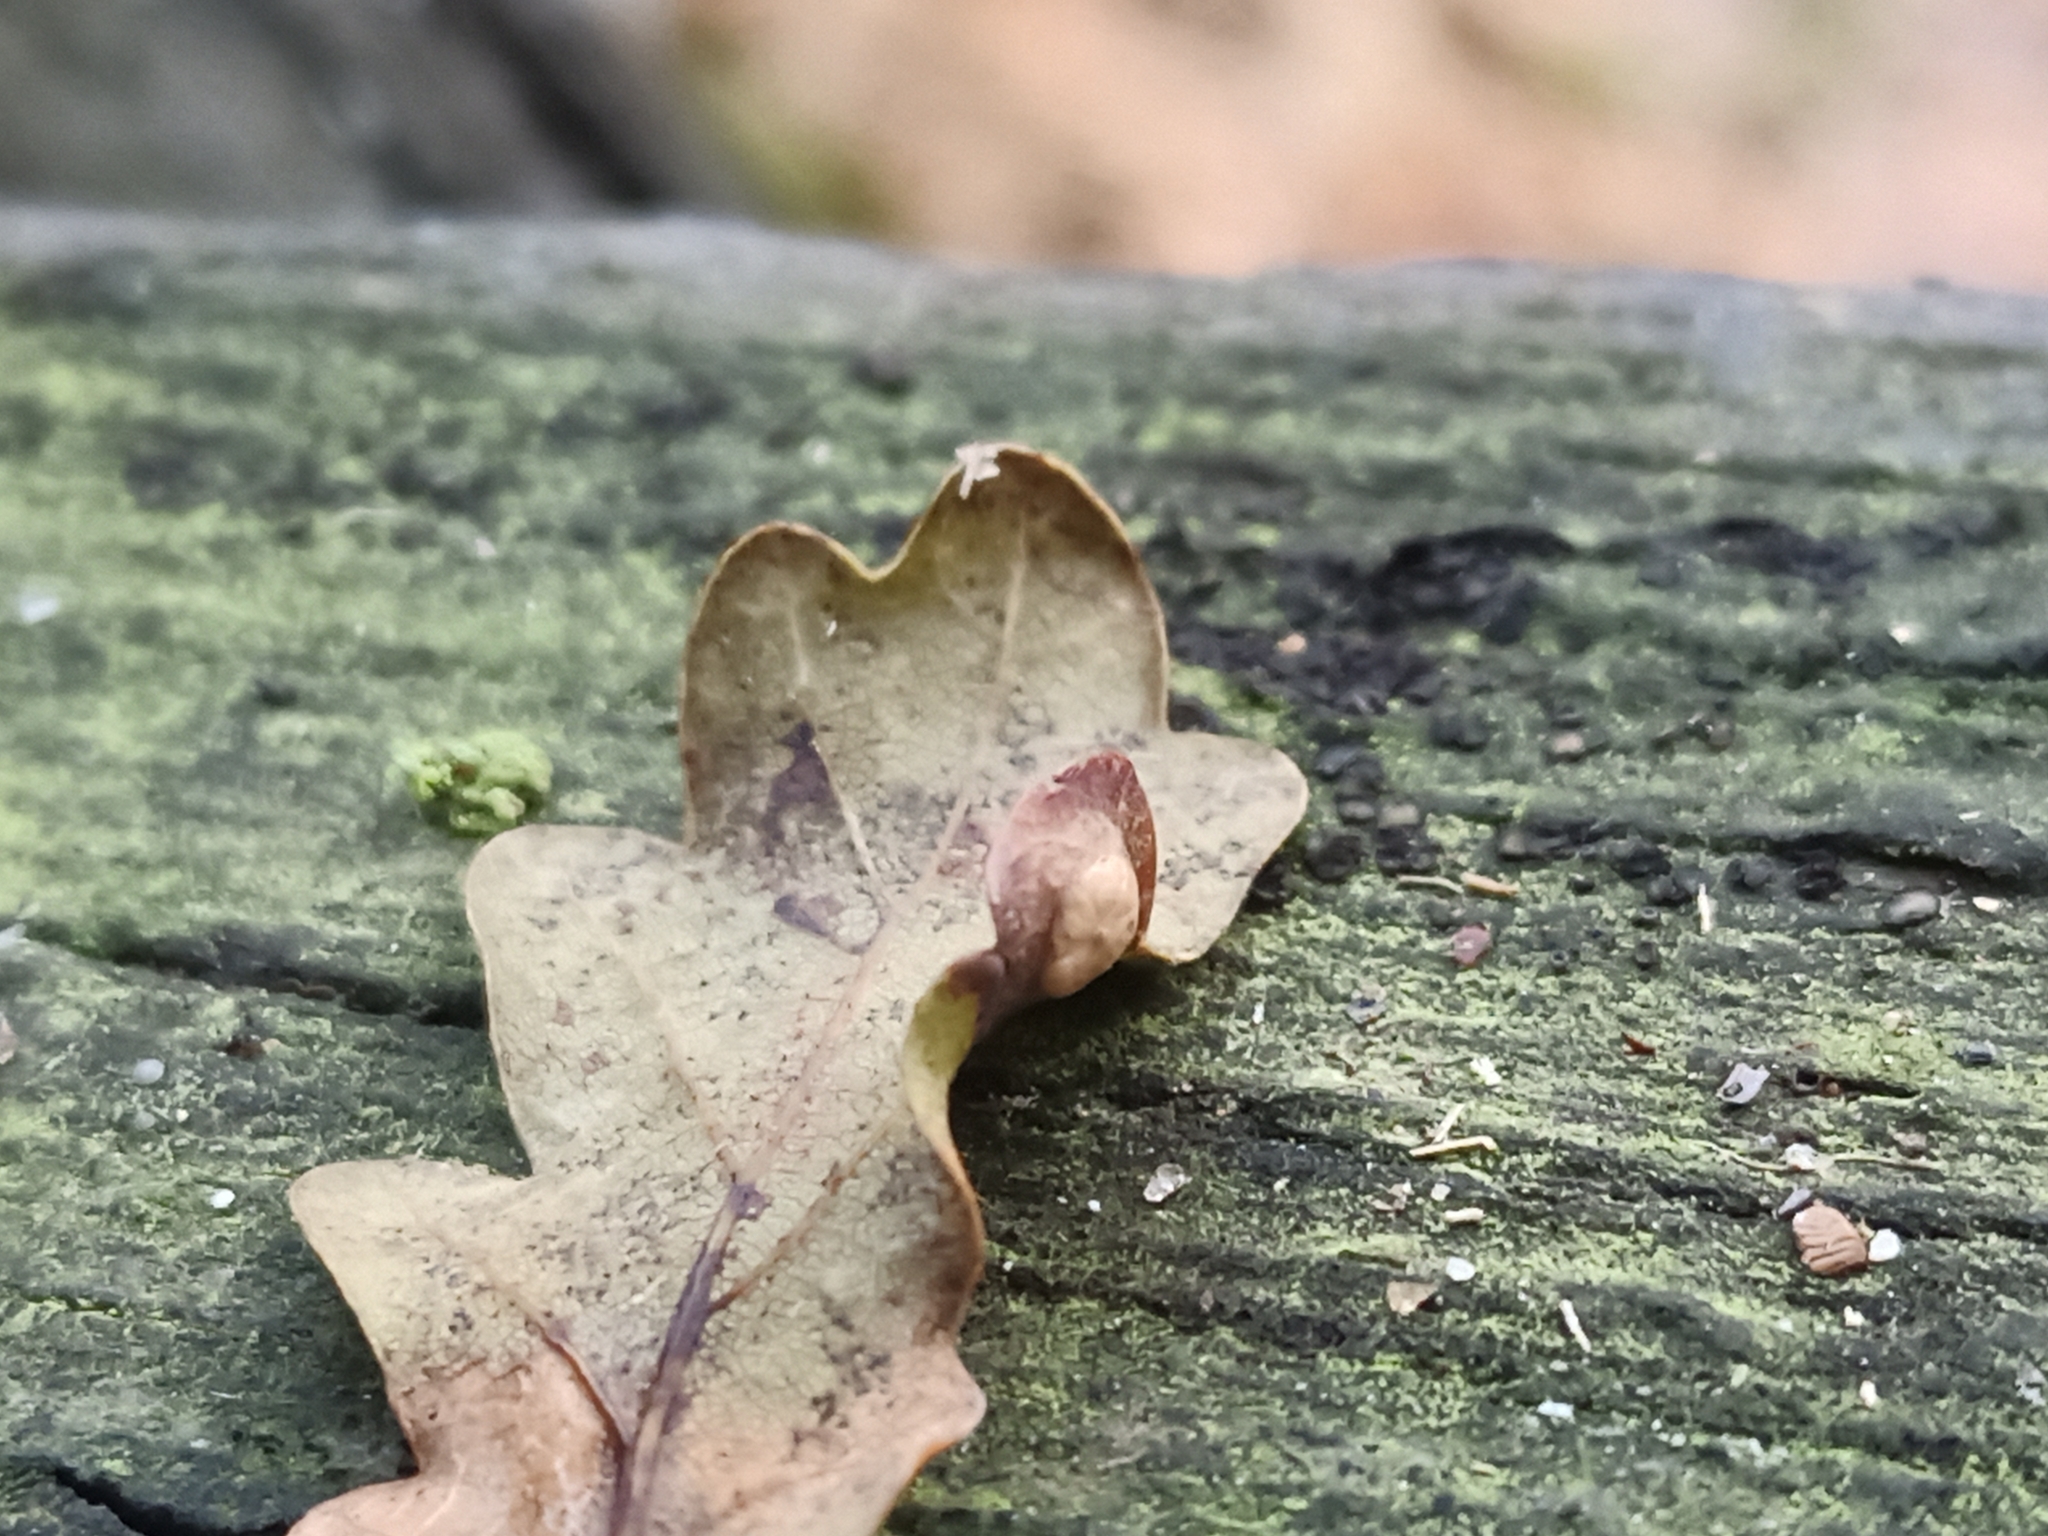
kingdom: Animalia
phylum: Arthropoda
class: Insecta
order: Hymenoptera
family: Cynipidae
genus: Neuroterus
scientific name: Neuroterus numismalis
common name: Silk-button spangle gall
